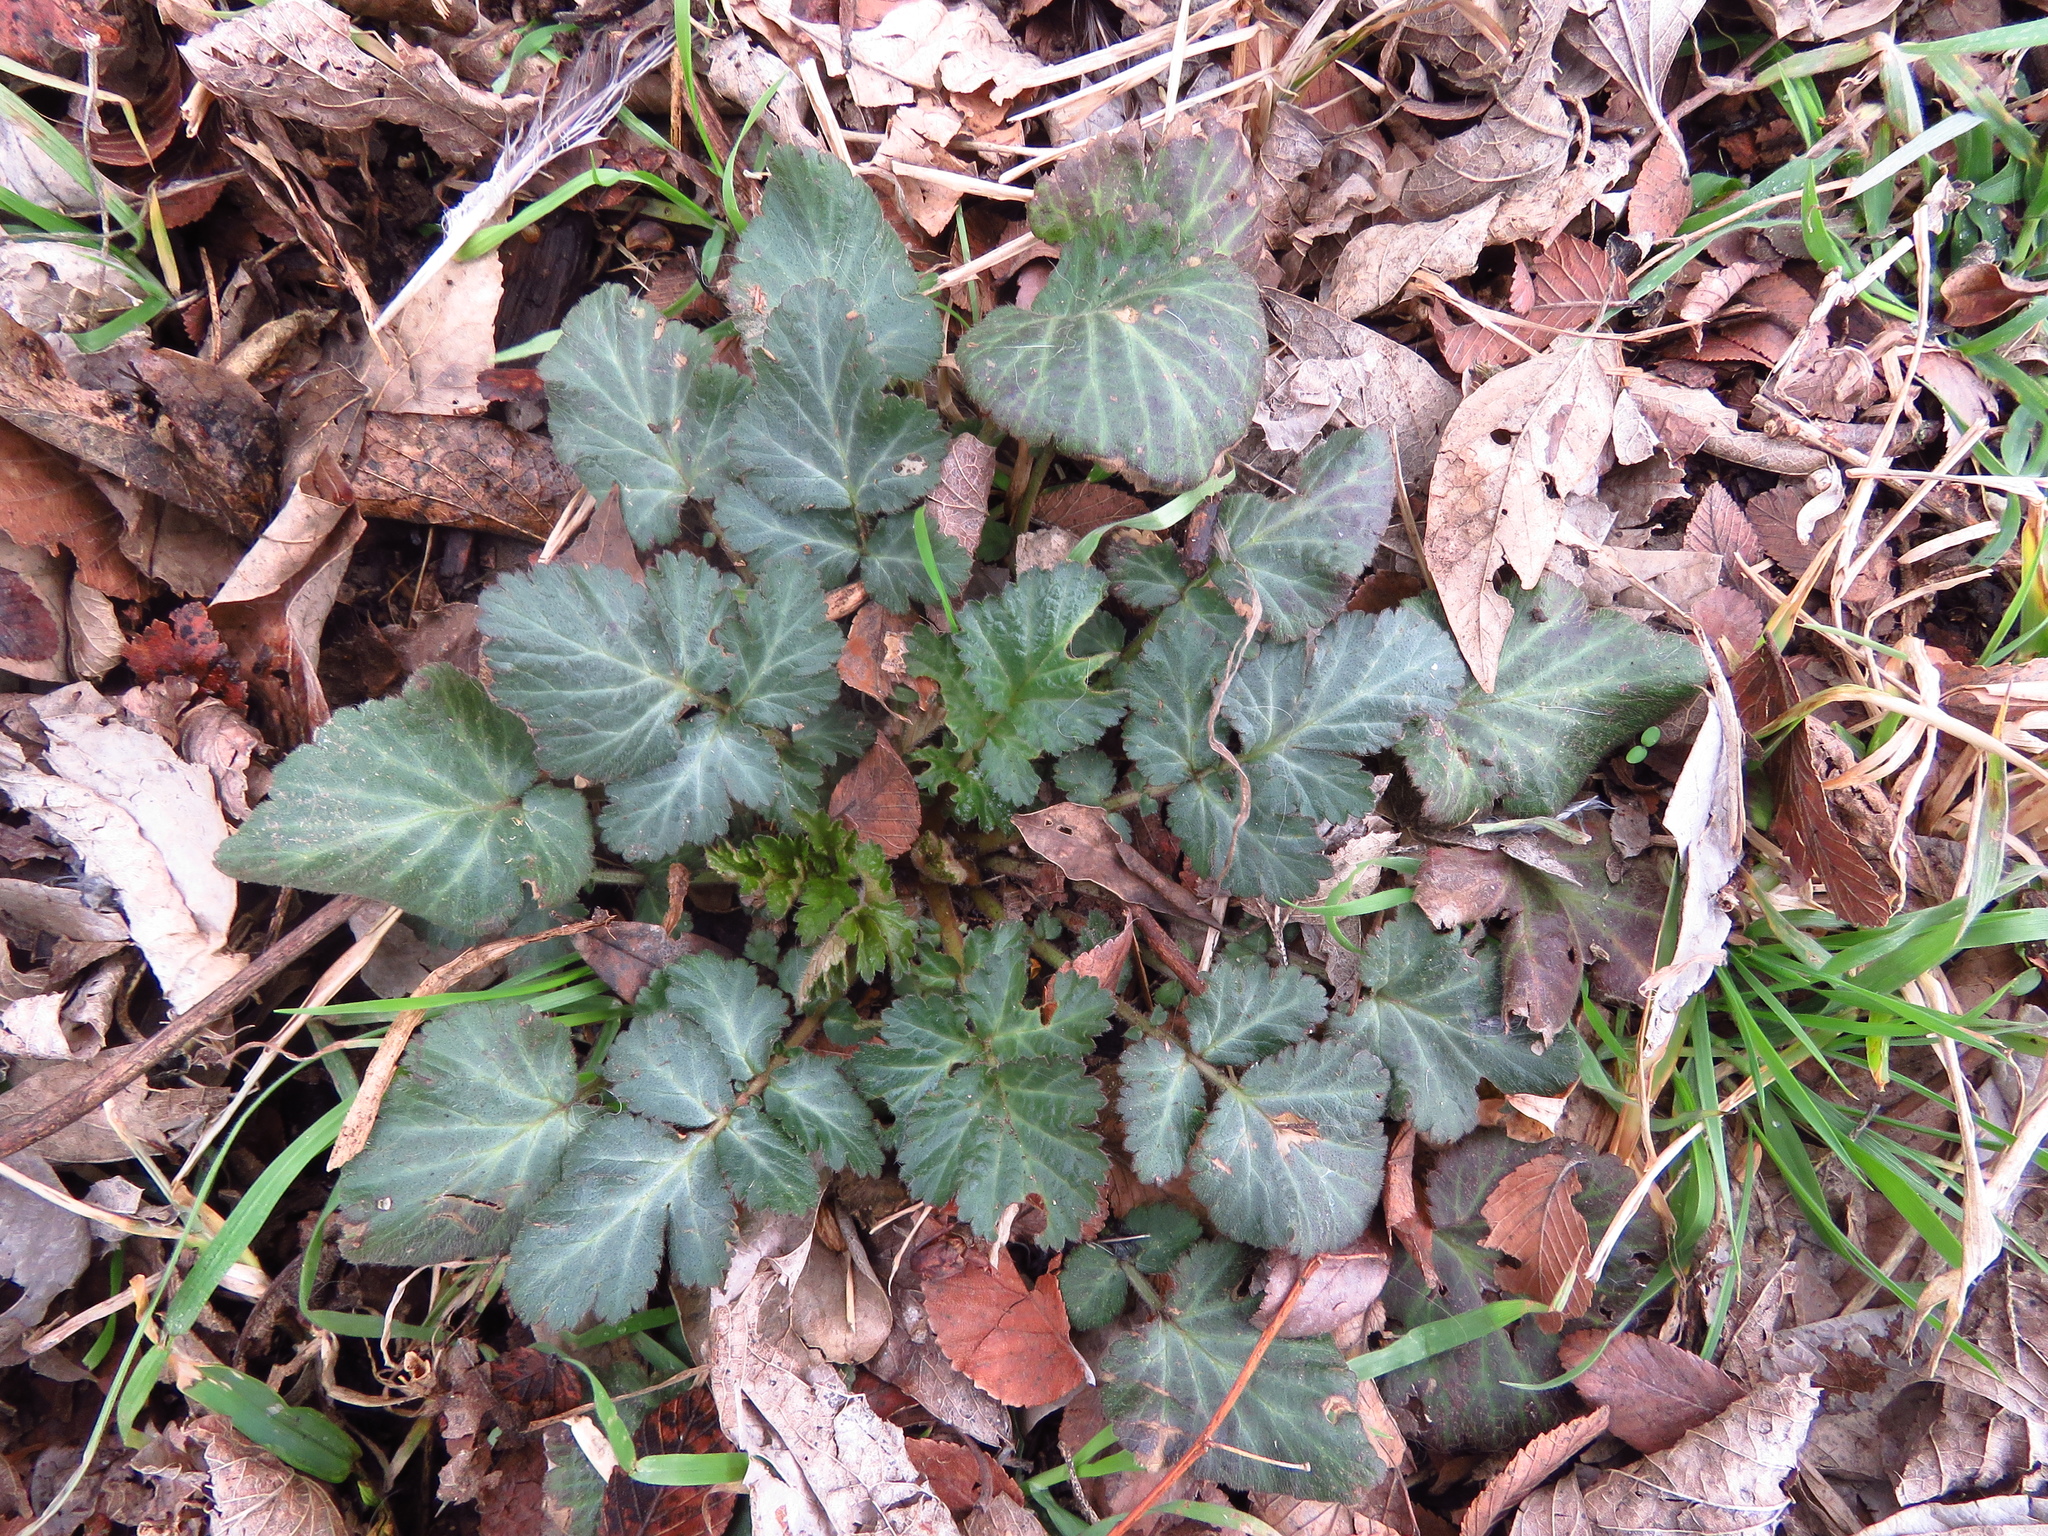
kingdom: Plantae
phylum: Tracheophyta
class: Magnoliopsida
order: Rosales
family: Rosaceae
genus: Geum
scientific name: Geum canadense
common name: White avens
